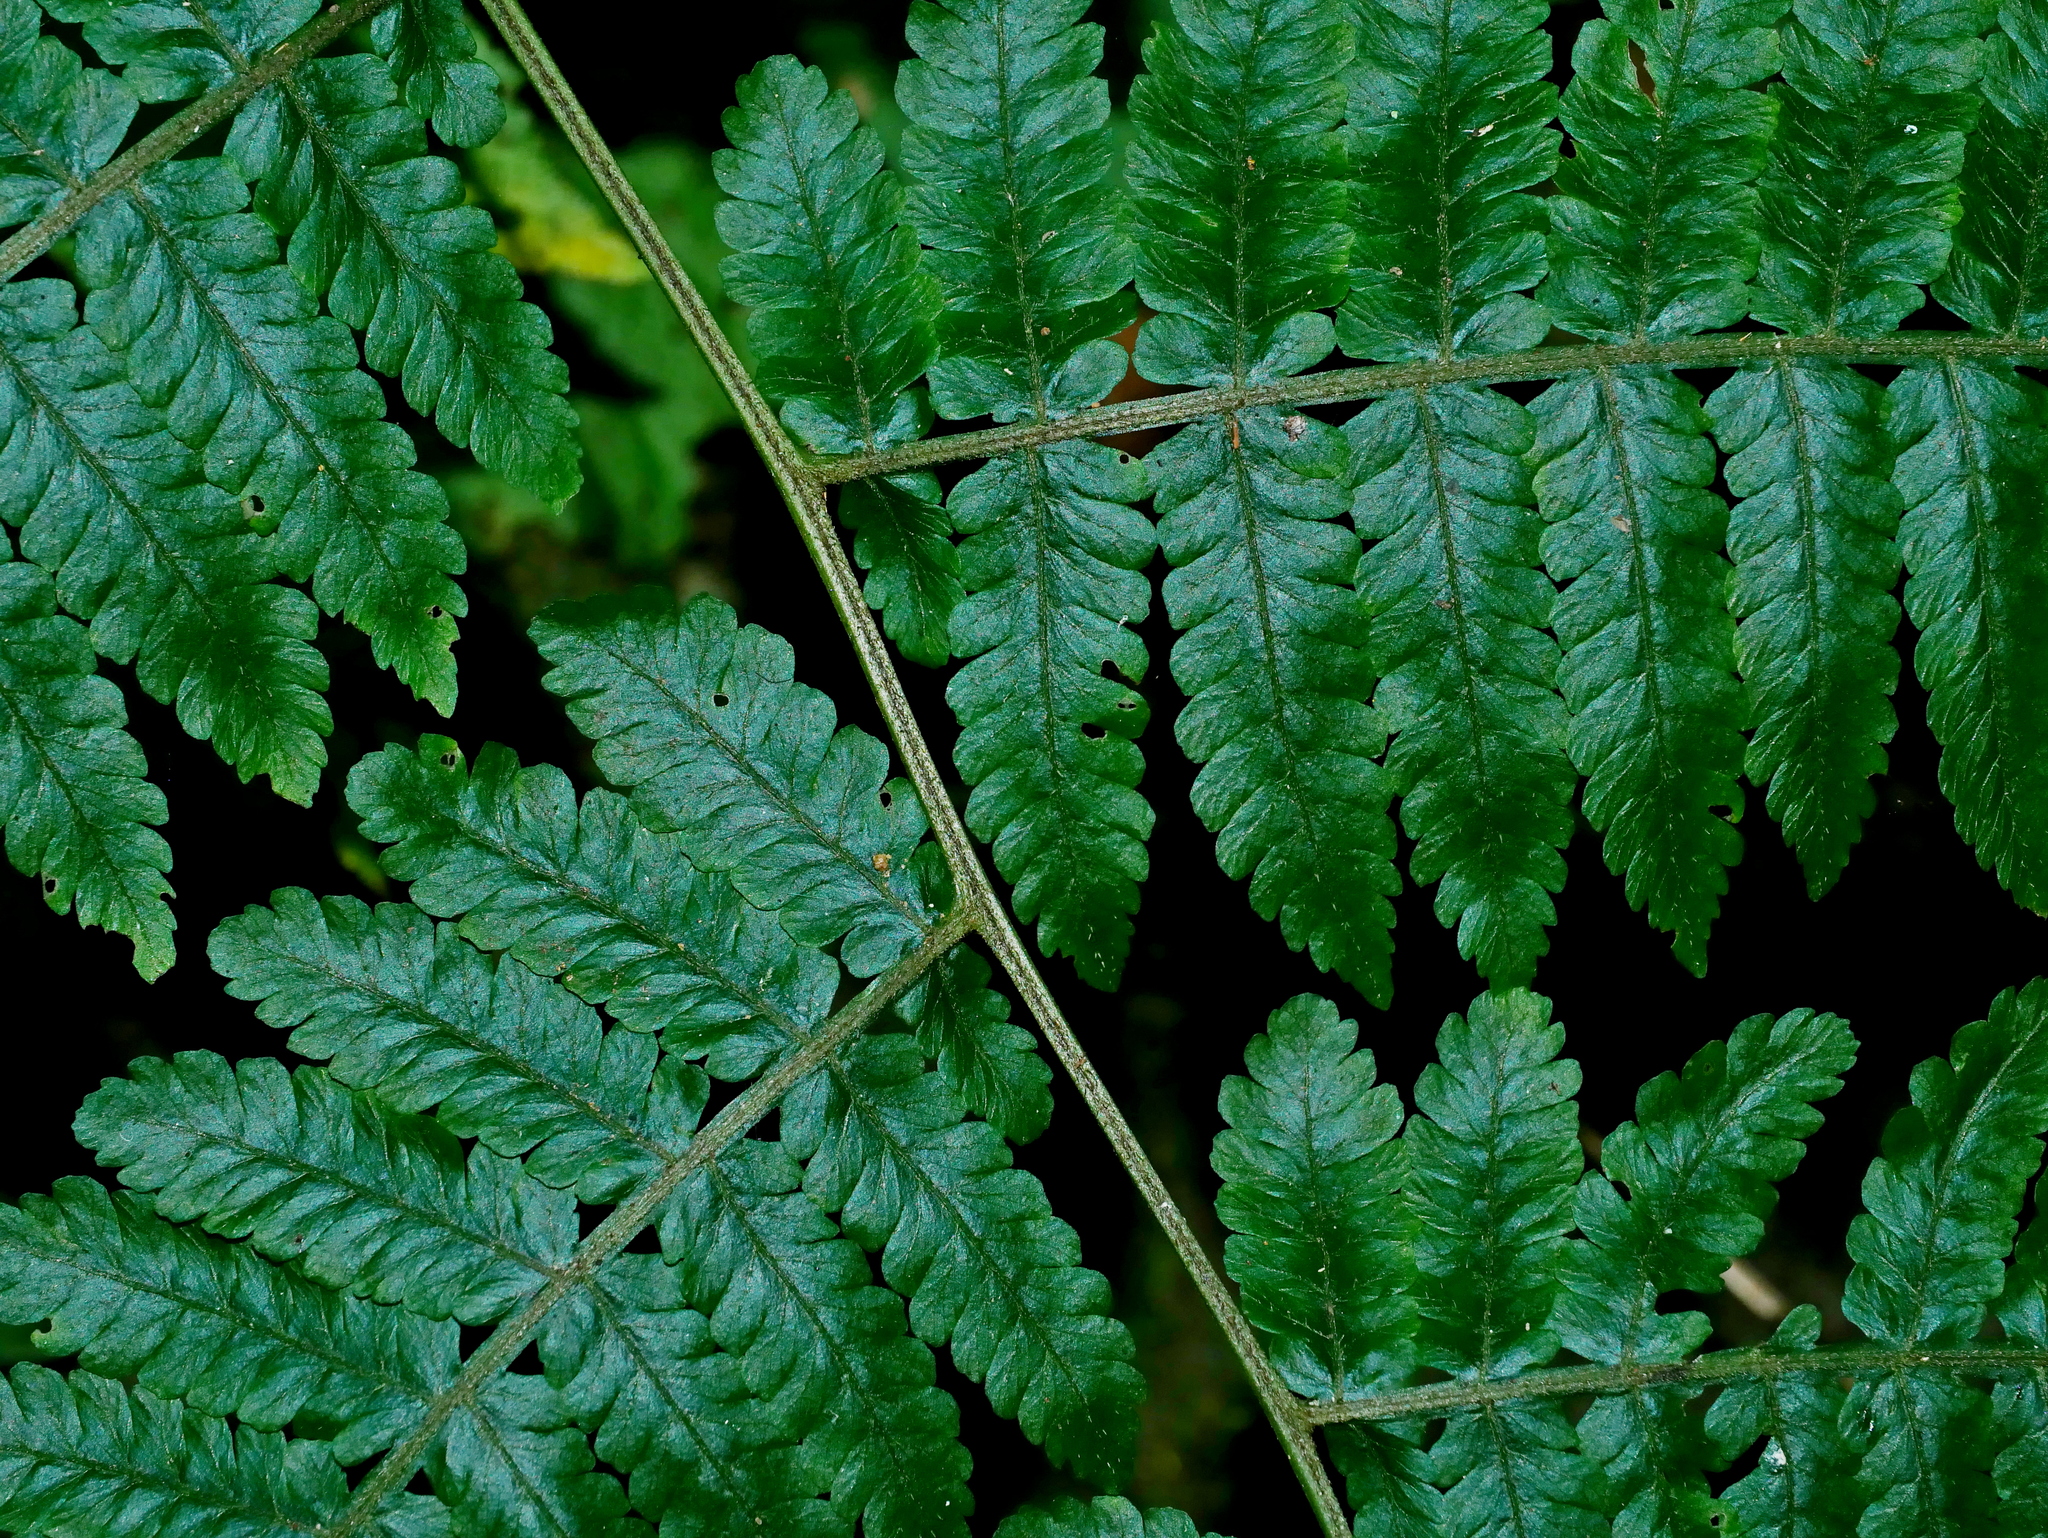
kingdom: Plantae
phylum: Tracheophyta
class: Polypodiopsida
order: Polypodiales
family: Athyriaceae
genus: Deparia
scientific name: Deparia boryana
